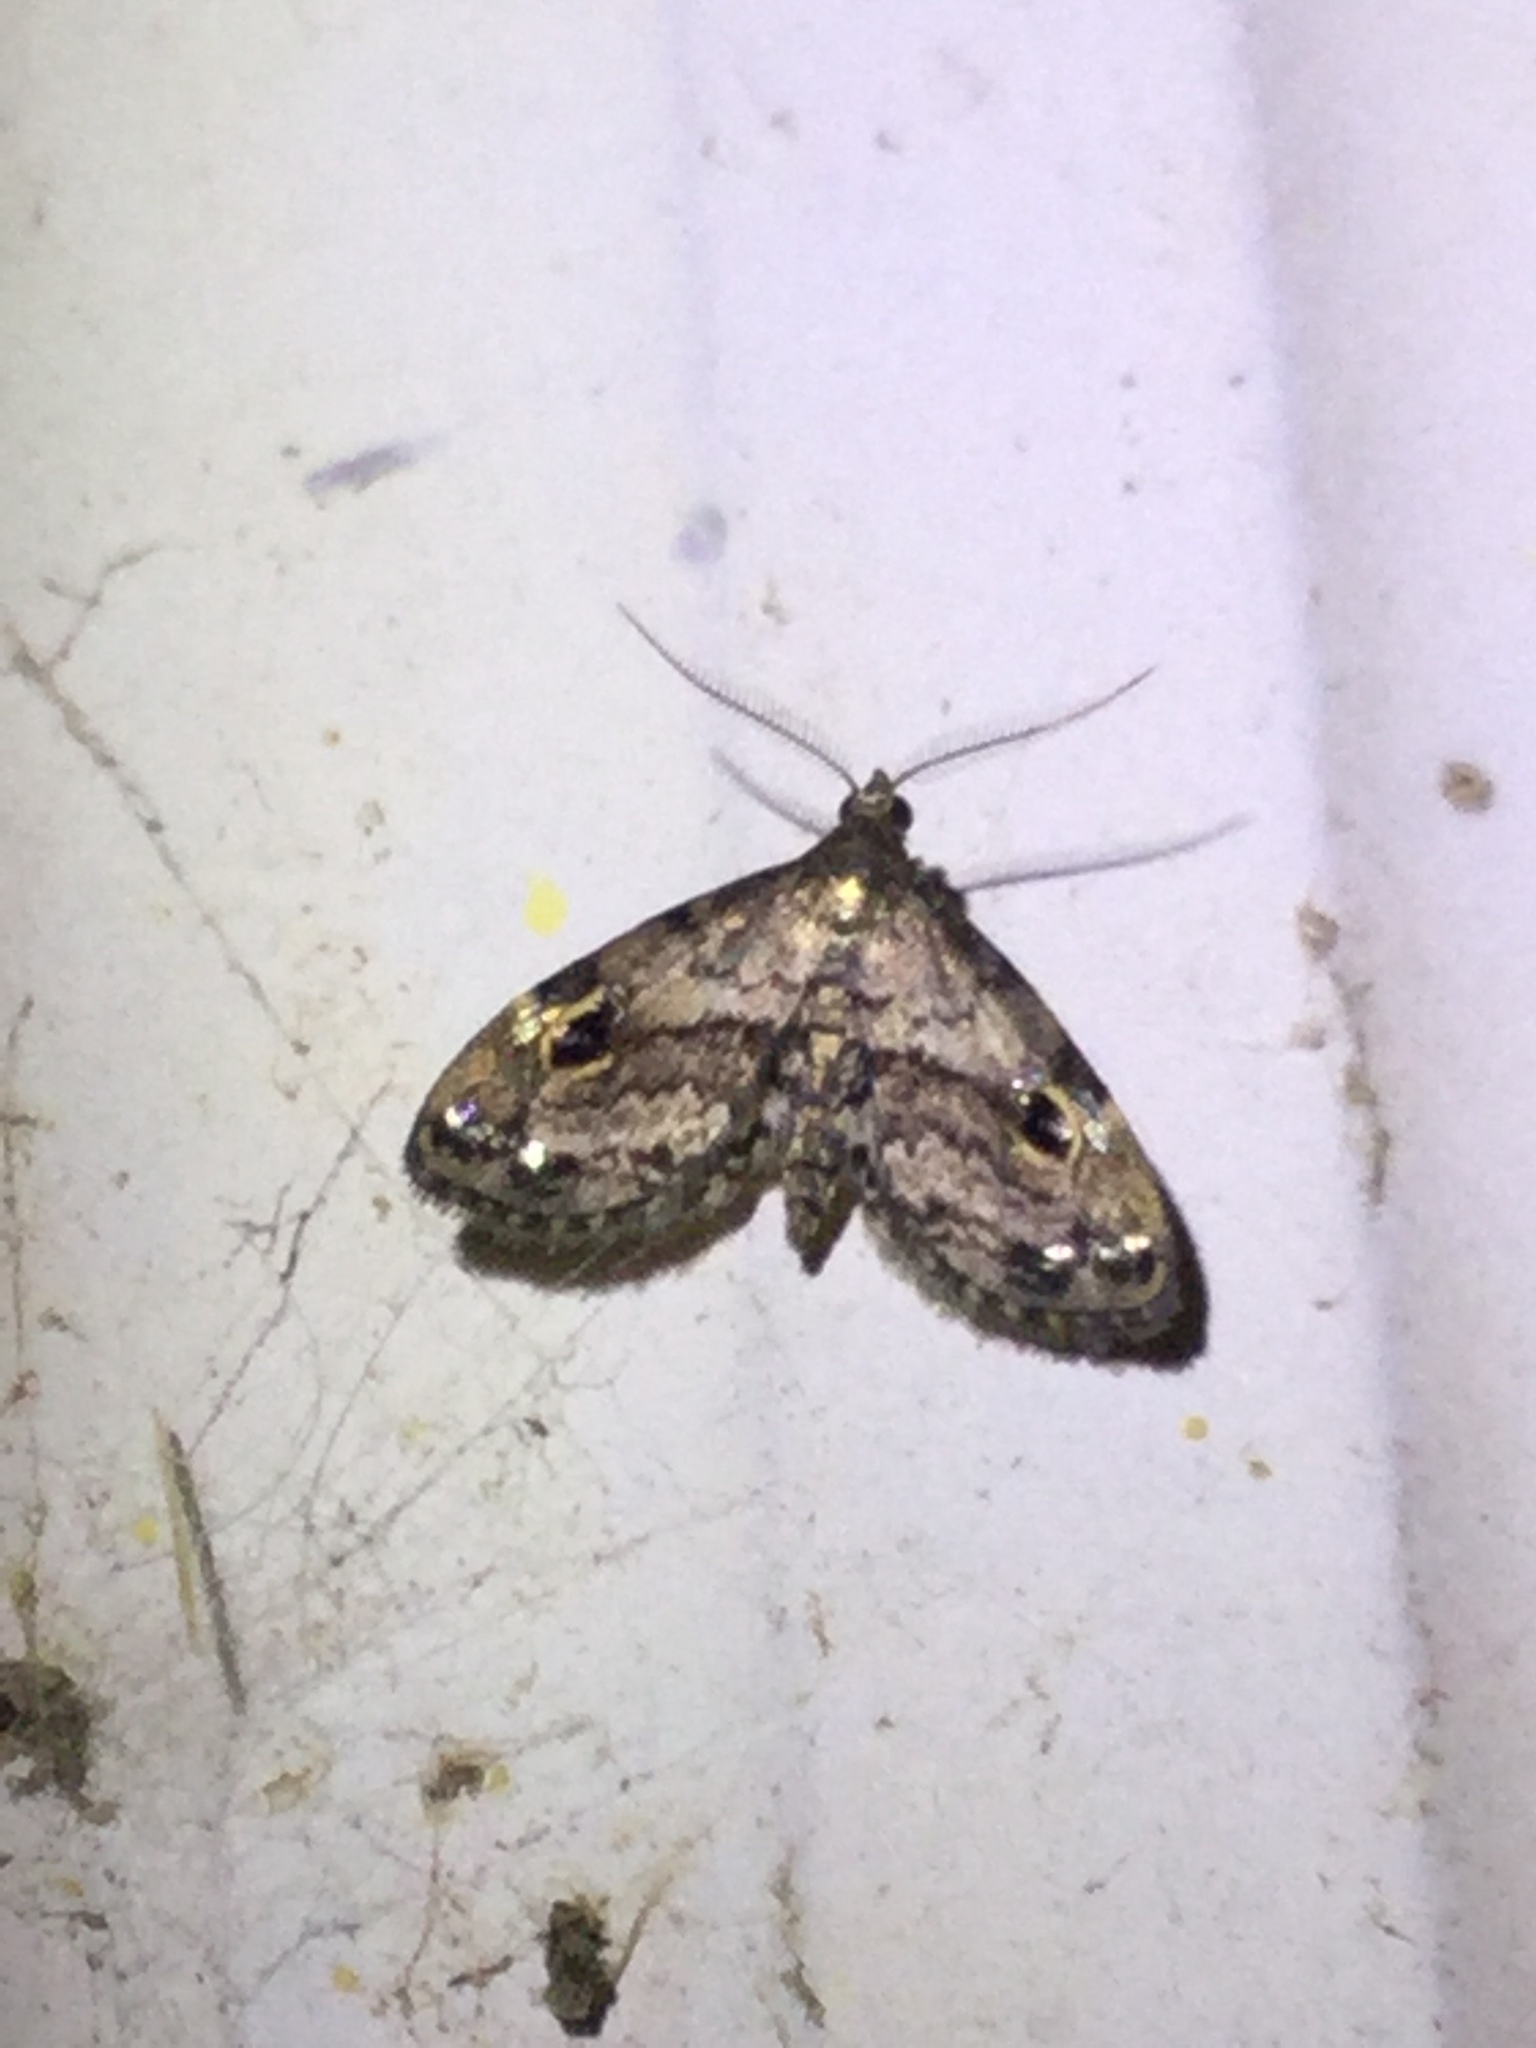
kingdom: Animalia
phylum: Arthropoda
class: Insecta
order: Lepidoptera
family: Erebidae
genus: Melanomma
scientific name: Melanomma auricinctaria
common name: Gold-lined melanomma moth
